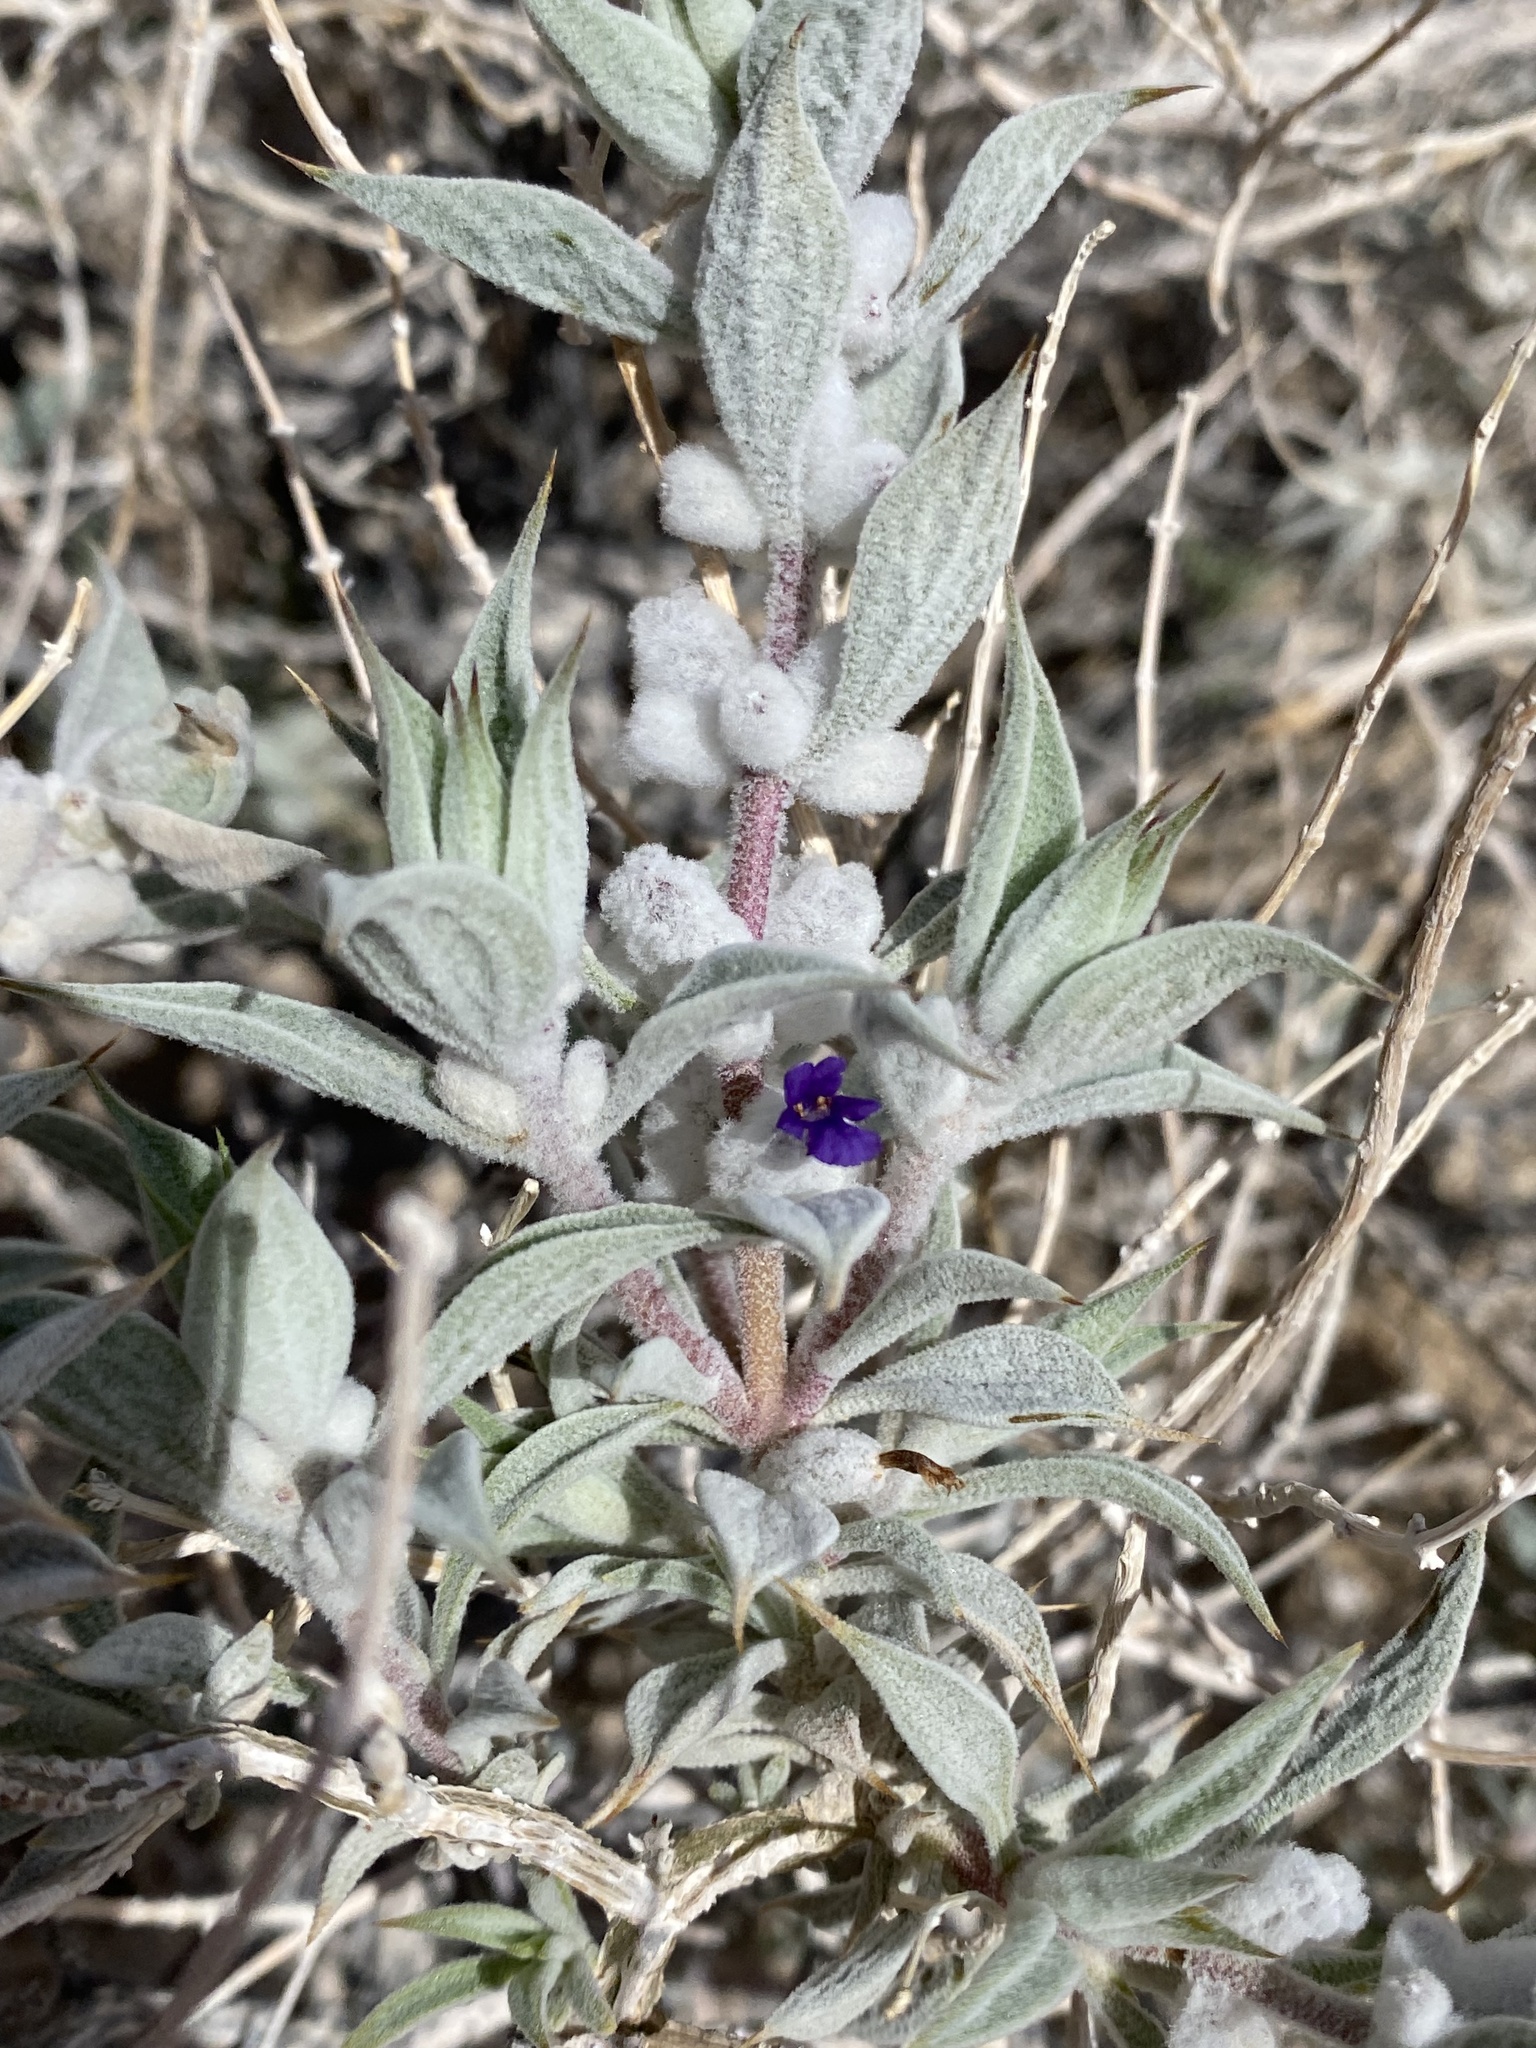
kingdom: Plantae
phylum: Tracheophyta
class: Magnoliopsida
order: Lamiales
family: Lamiaceae
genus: Salvia
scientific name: Salvia funerea
